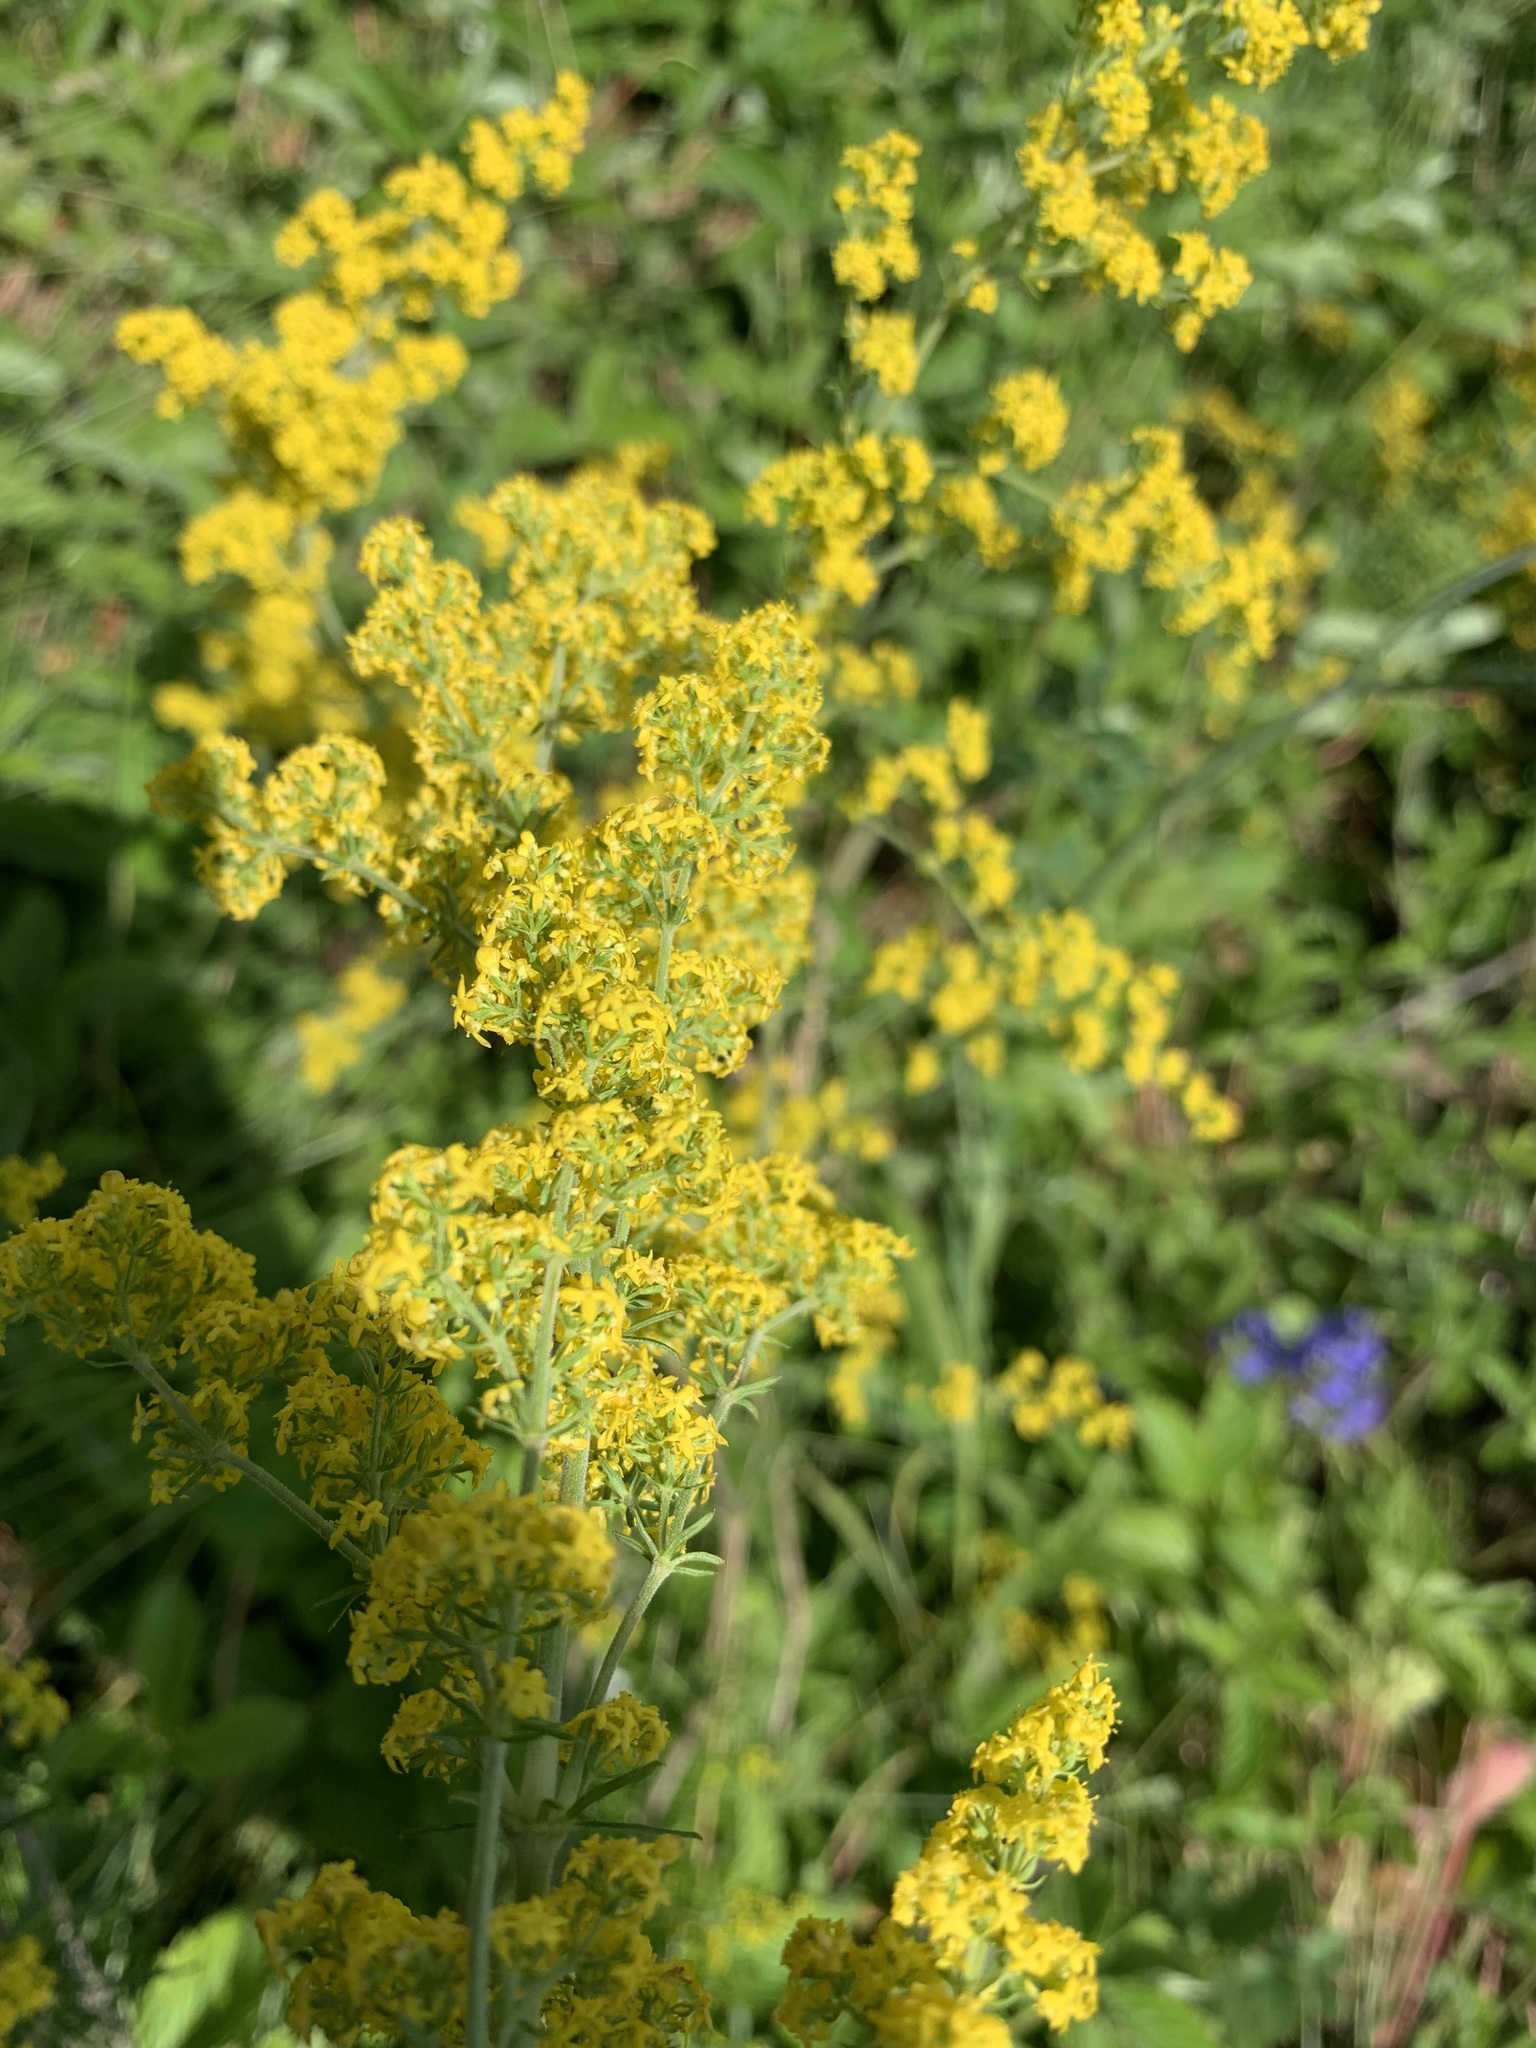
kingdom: Plantae
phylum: Tracheophyta
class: Magnoliopsida
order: Gentianales
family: Rubiaceae
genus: Galium
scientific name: Galium verum
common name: Lady's bedstraw
